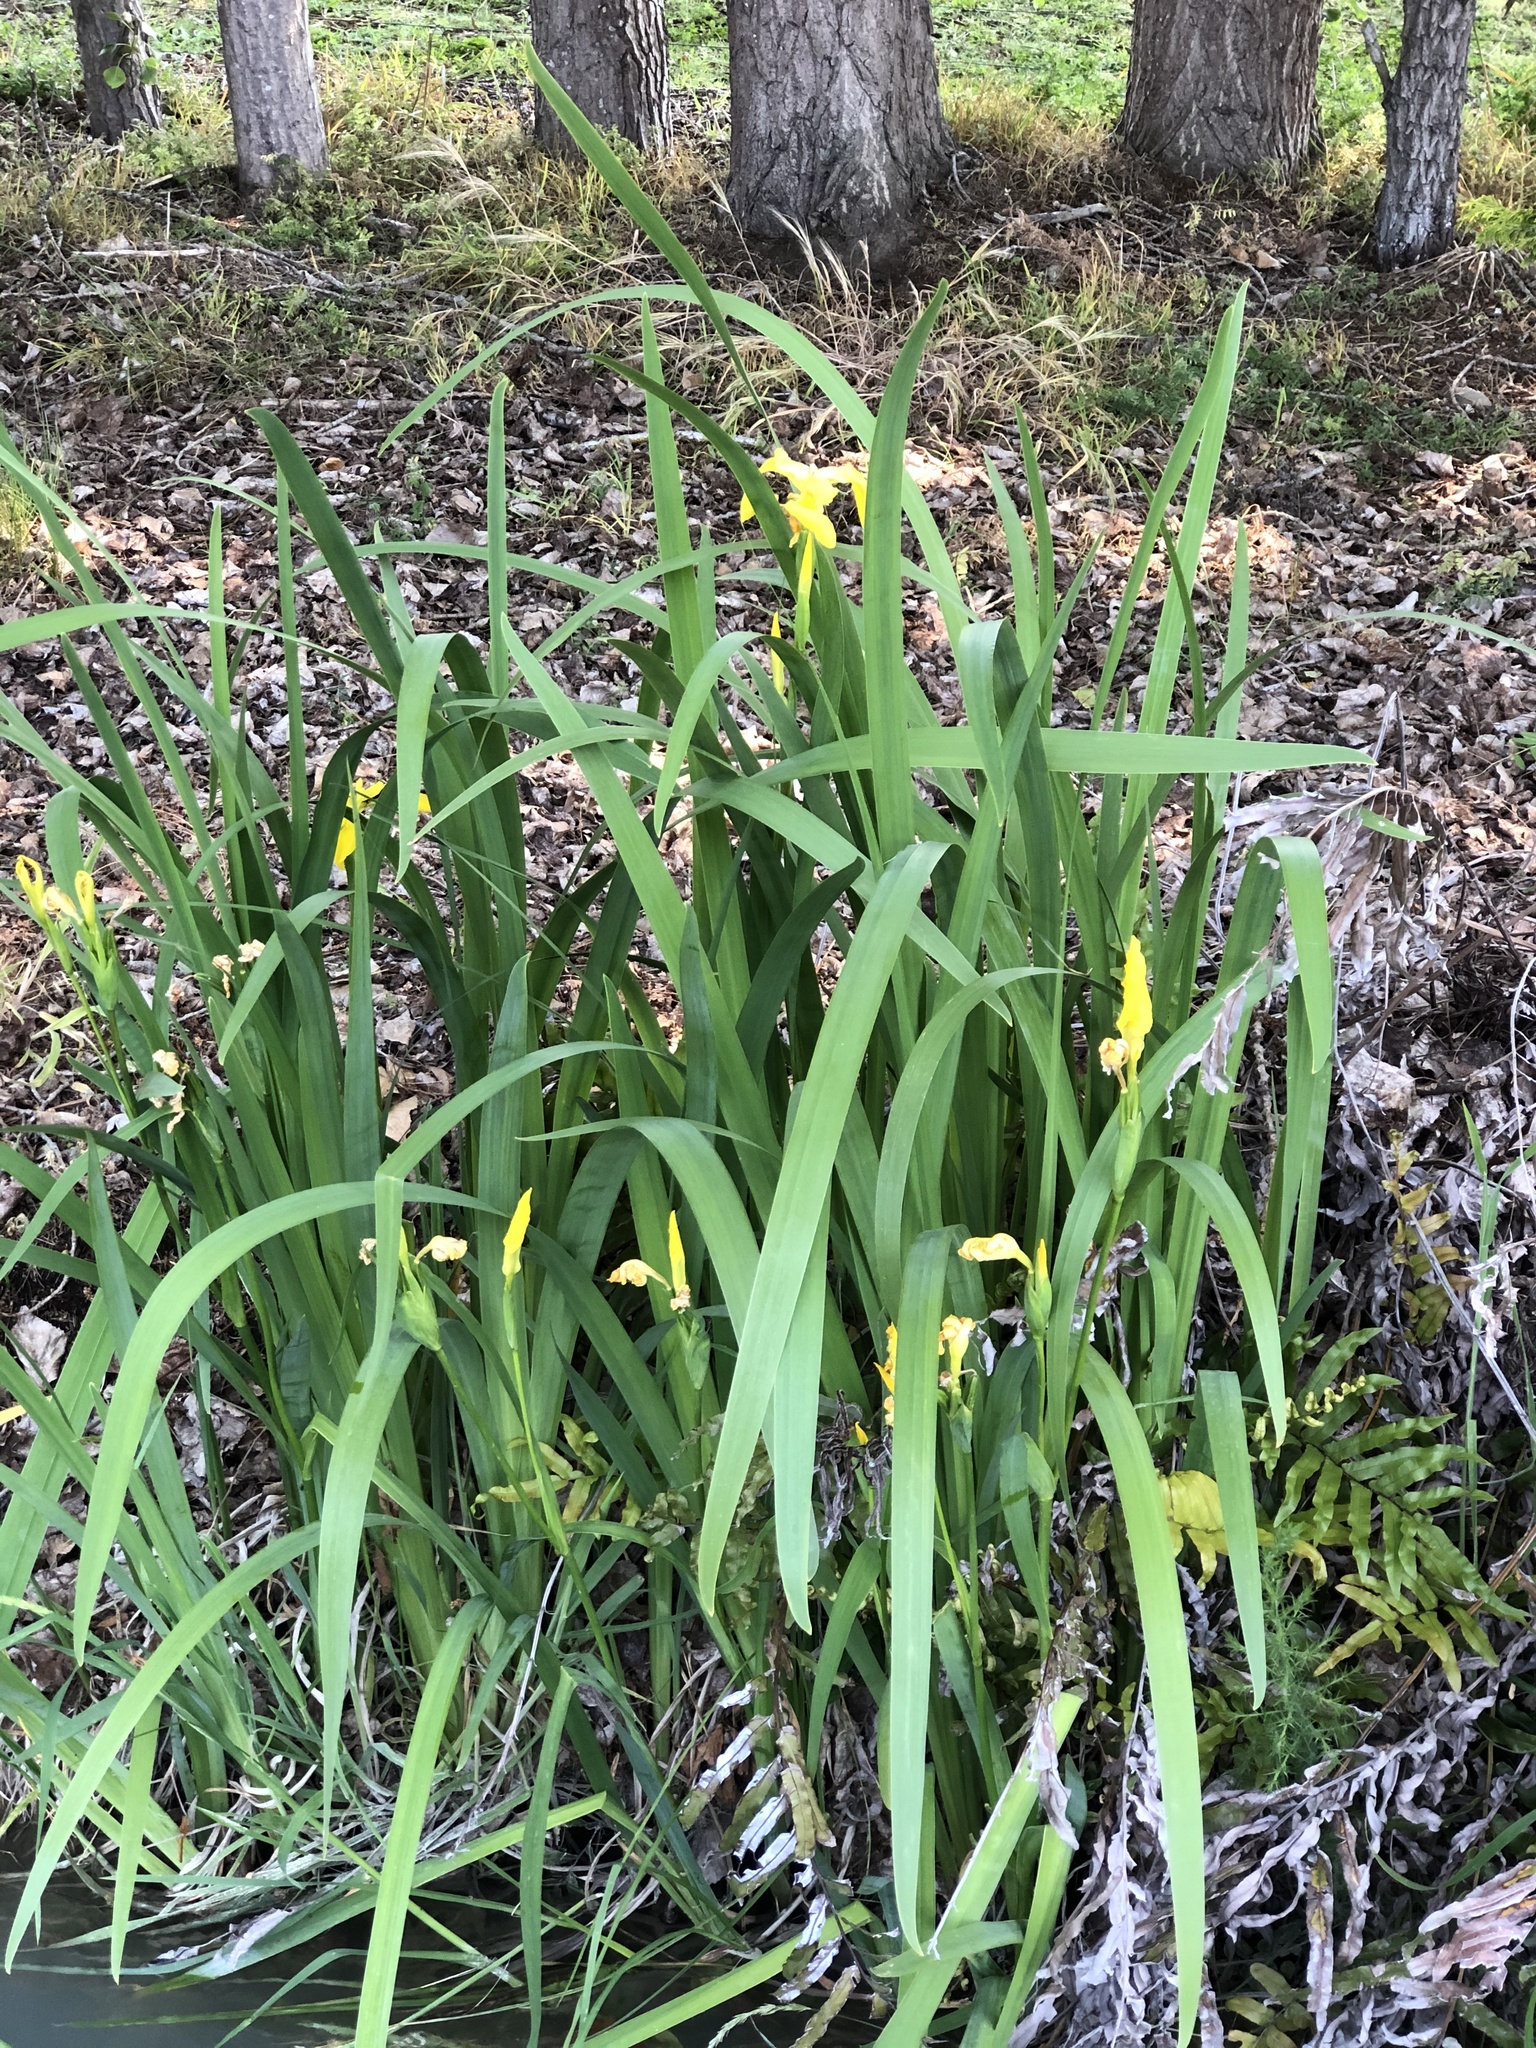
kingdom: Plantae
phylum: Tracheophyta
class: Liliopsida
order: Asparagales
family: Iridaceae
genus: Iris
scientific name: Iris pseudacorus
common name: Yellow flag
